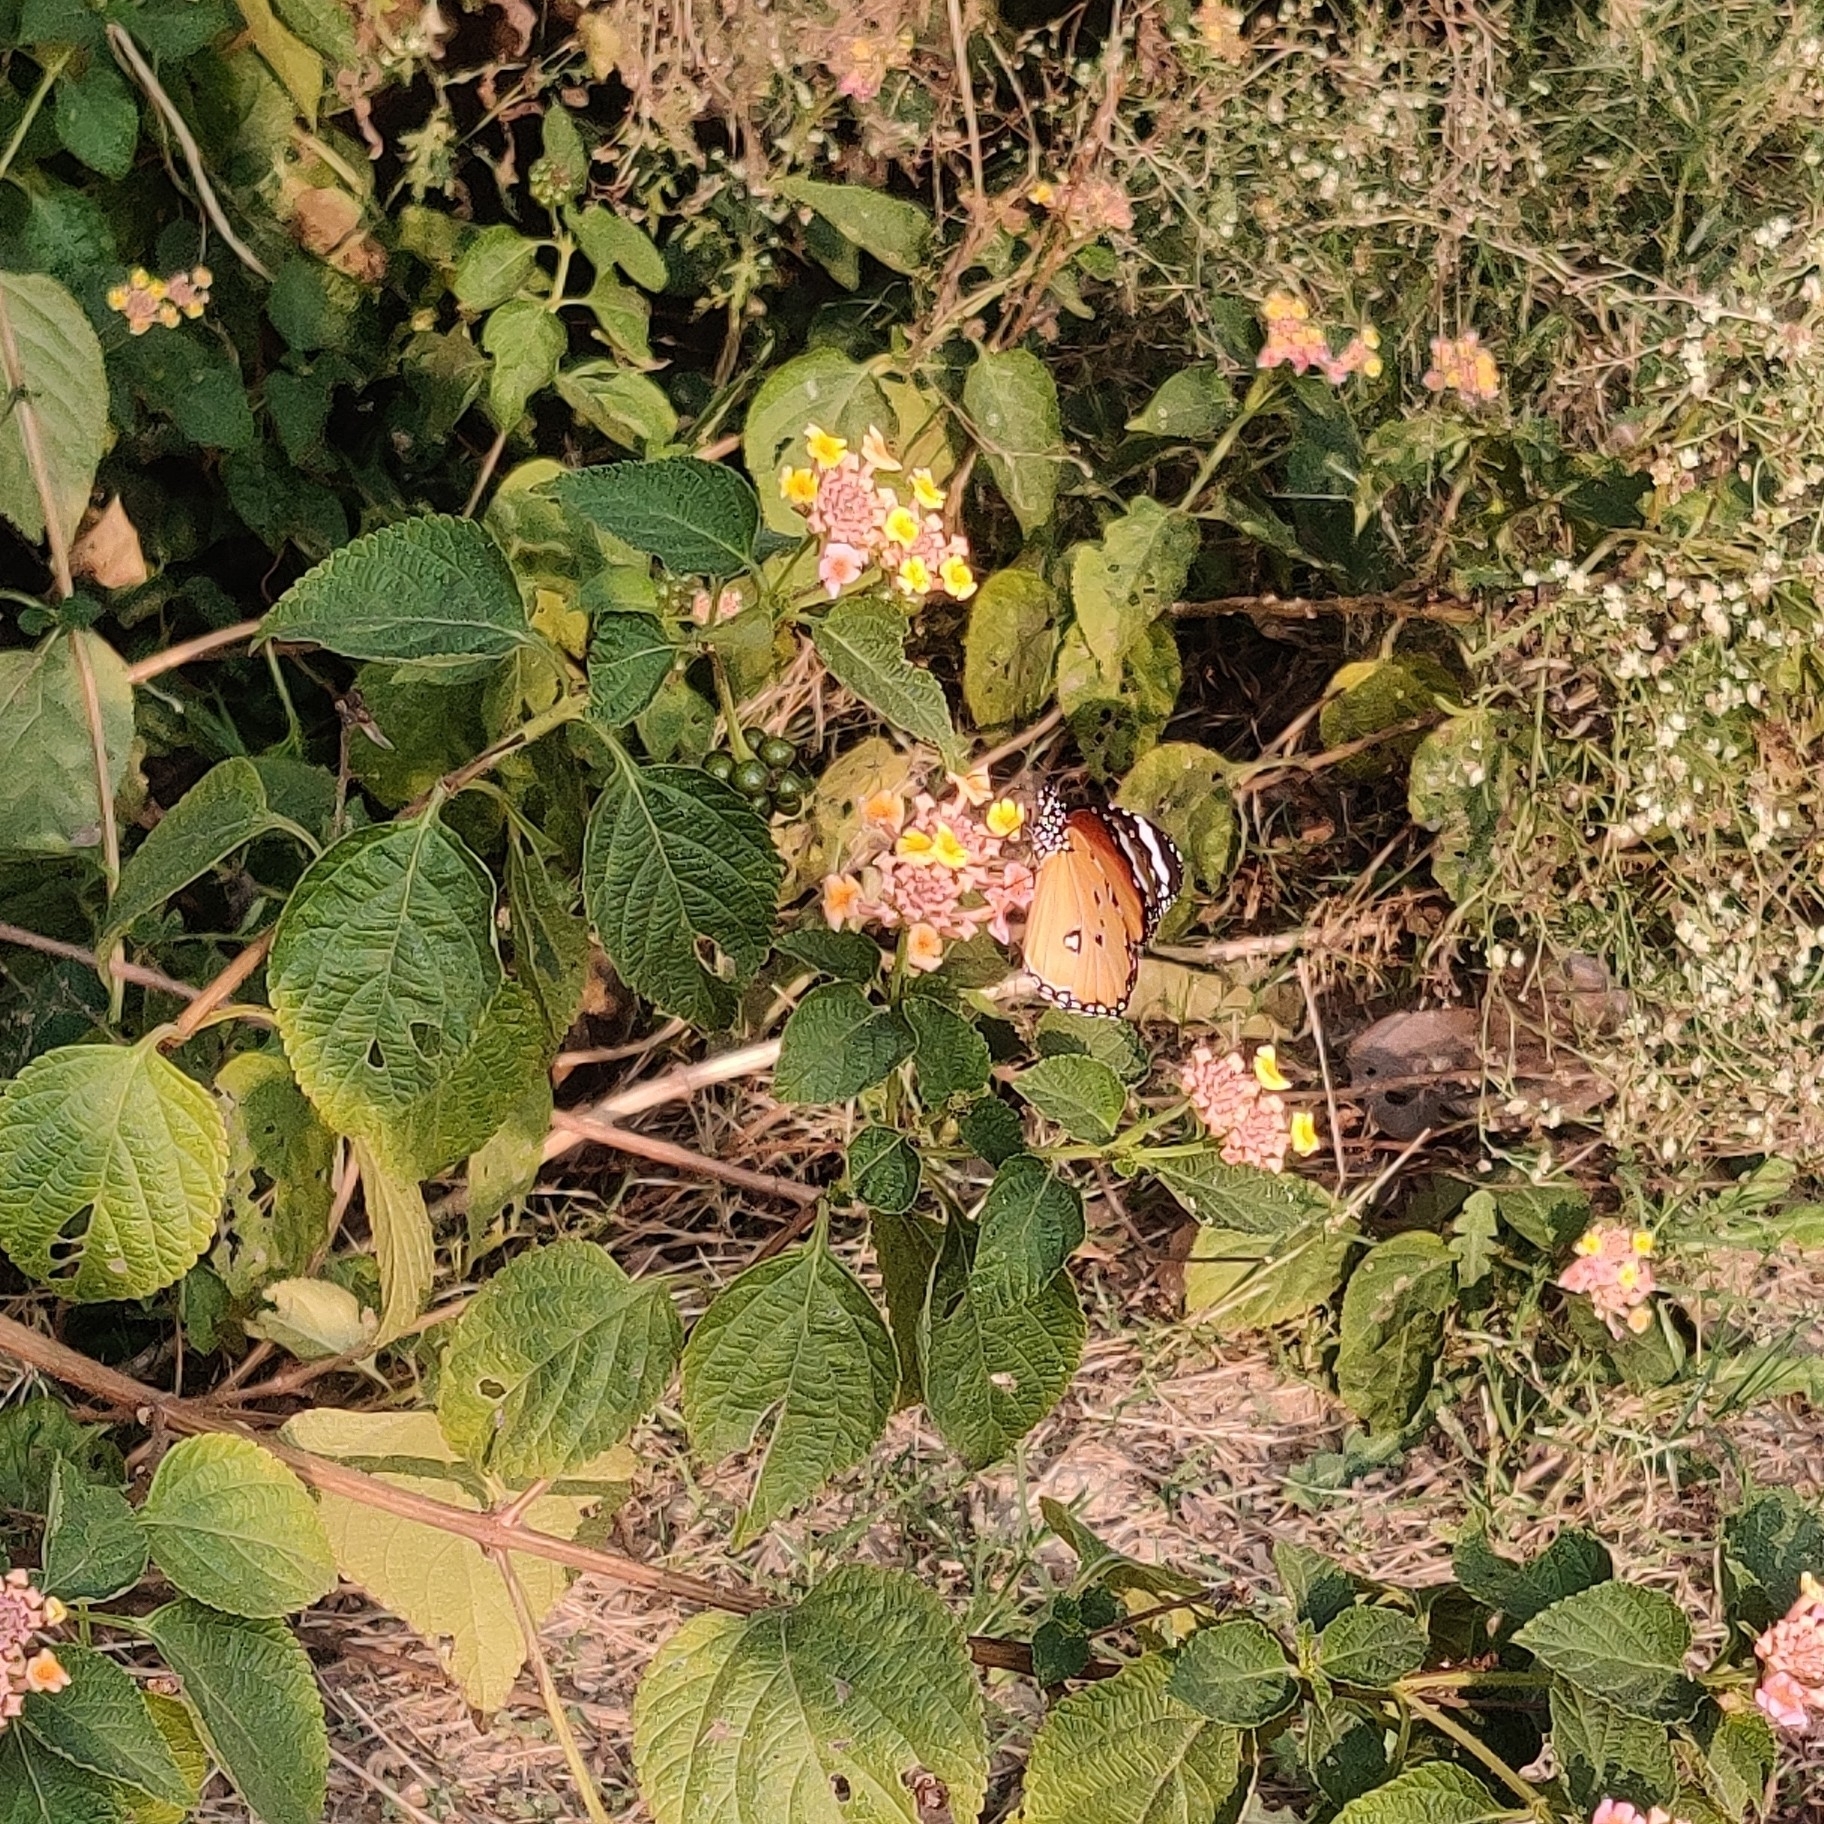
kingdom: Animalia
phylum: Arthropoda
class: Insecta
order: Lepidoptera
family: Nymphalidae
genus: Danaus
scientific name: Danaus chrysippus
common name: Plain tiger
